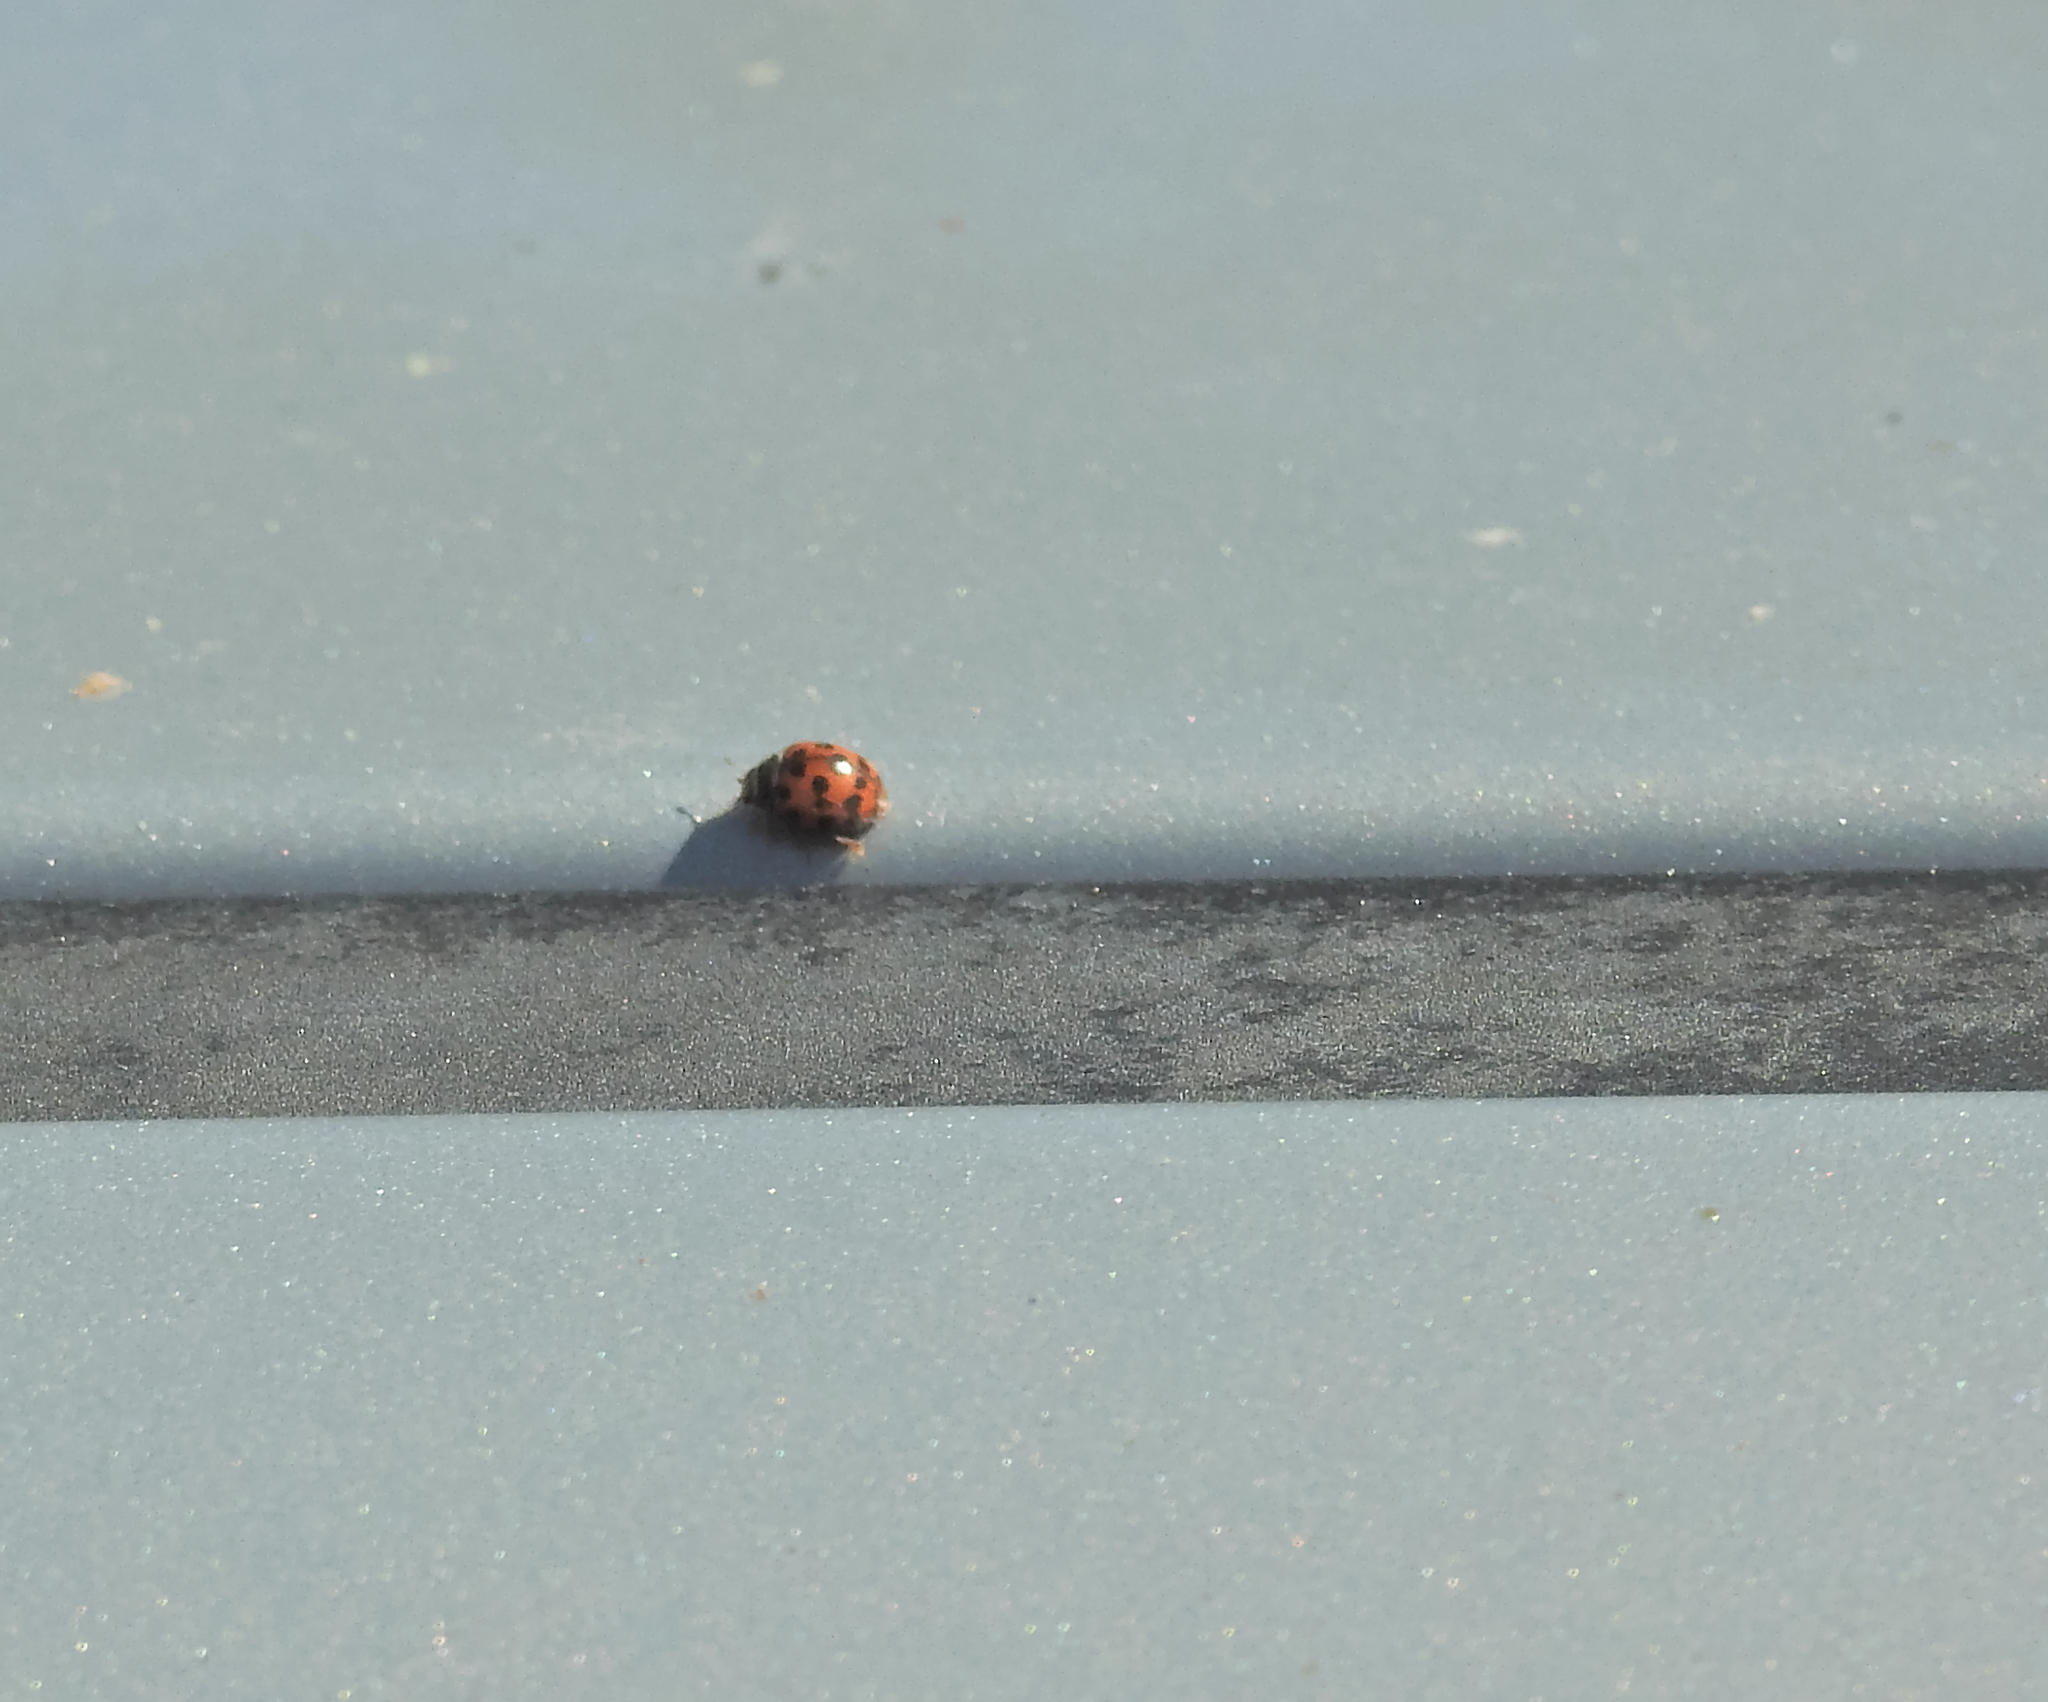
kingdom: Animalia
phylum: Arthropoda
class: Insecta
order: Coleoptera
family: Coccinellidae
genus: Subcoccinella
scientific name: Subcoccinella vigintiquatuorpunctata
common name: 24-spot ladybird
